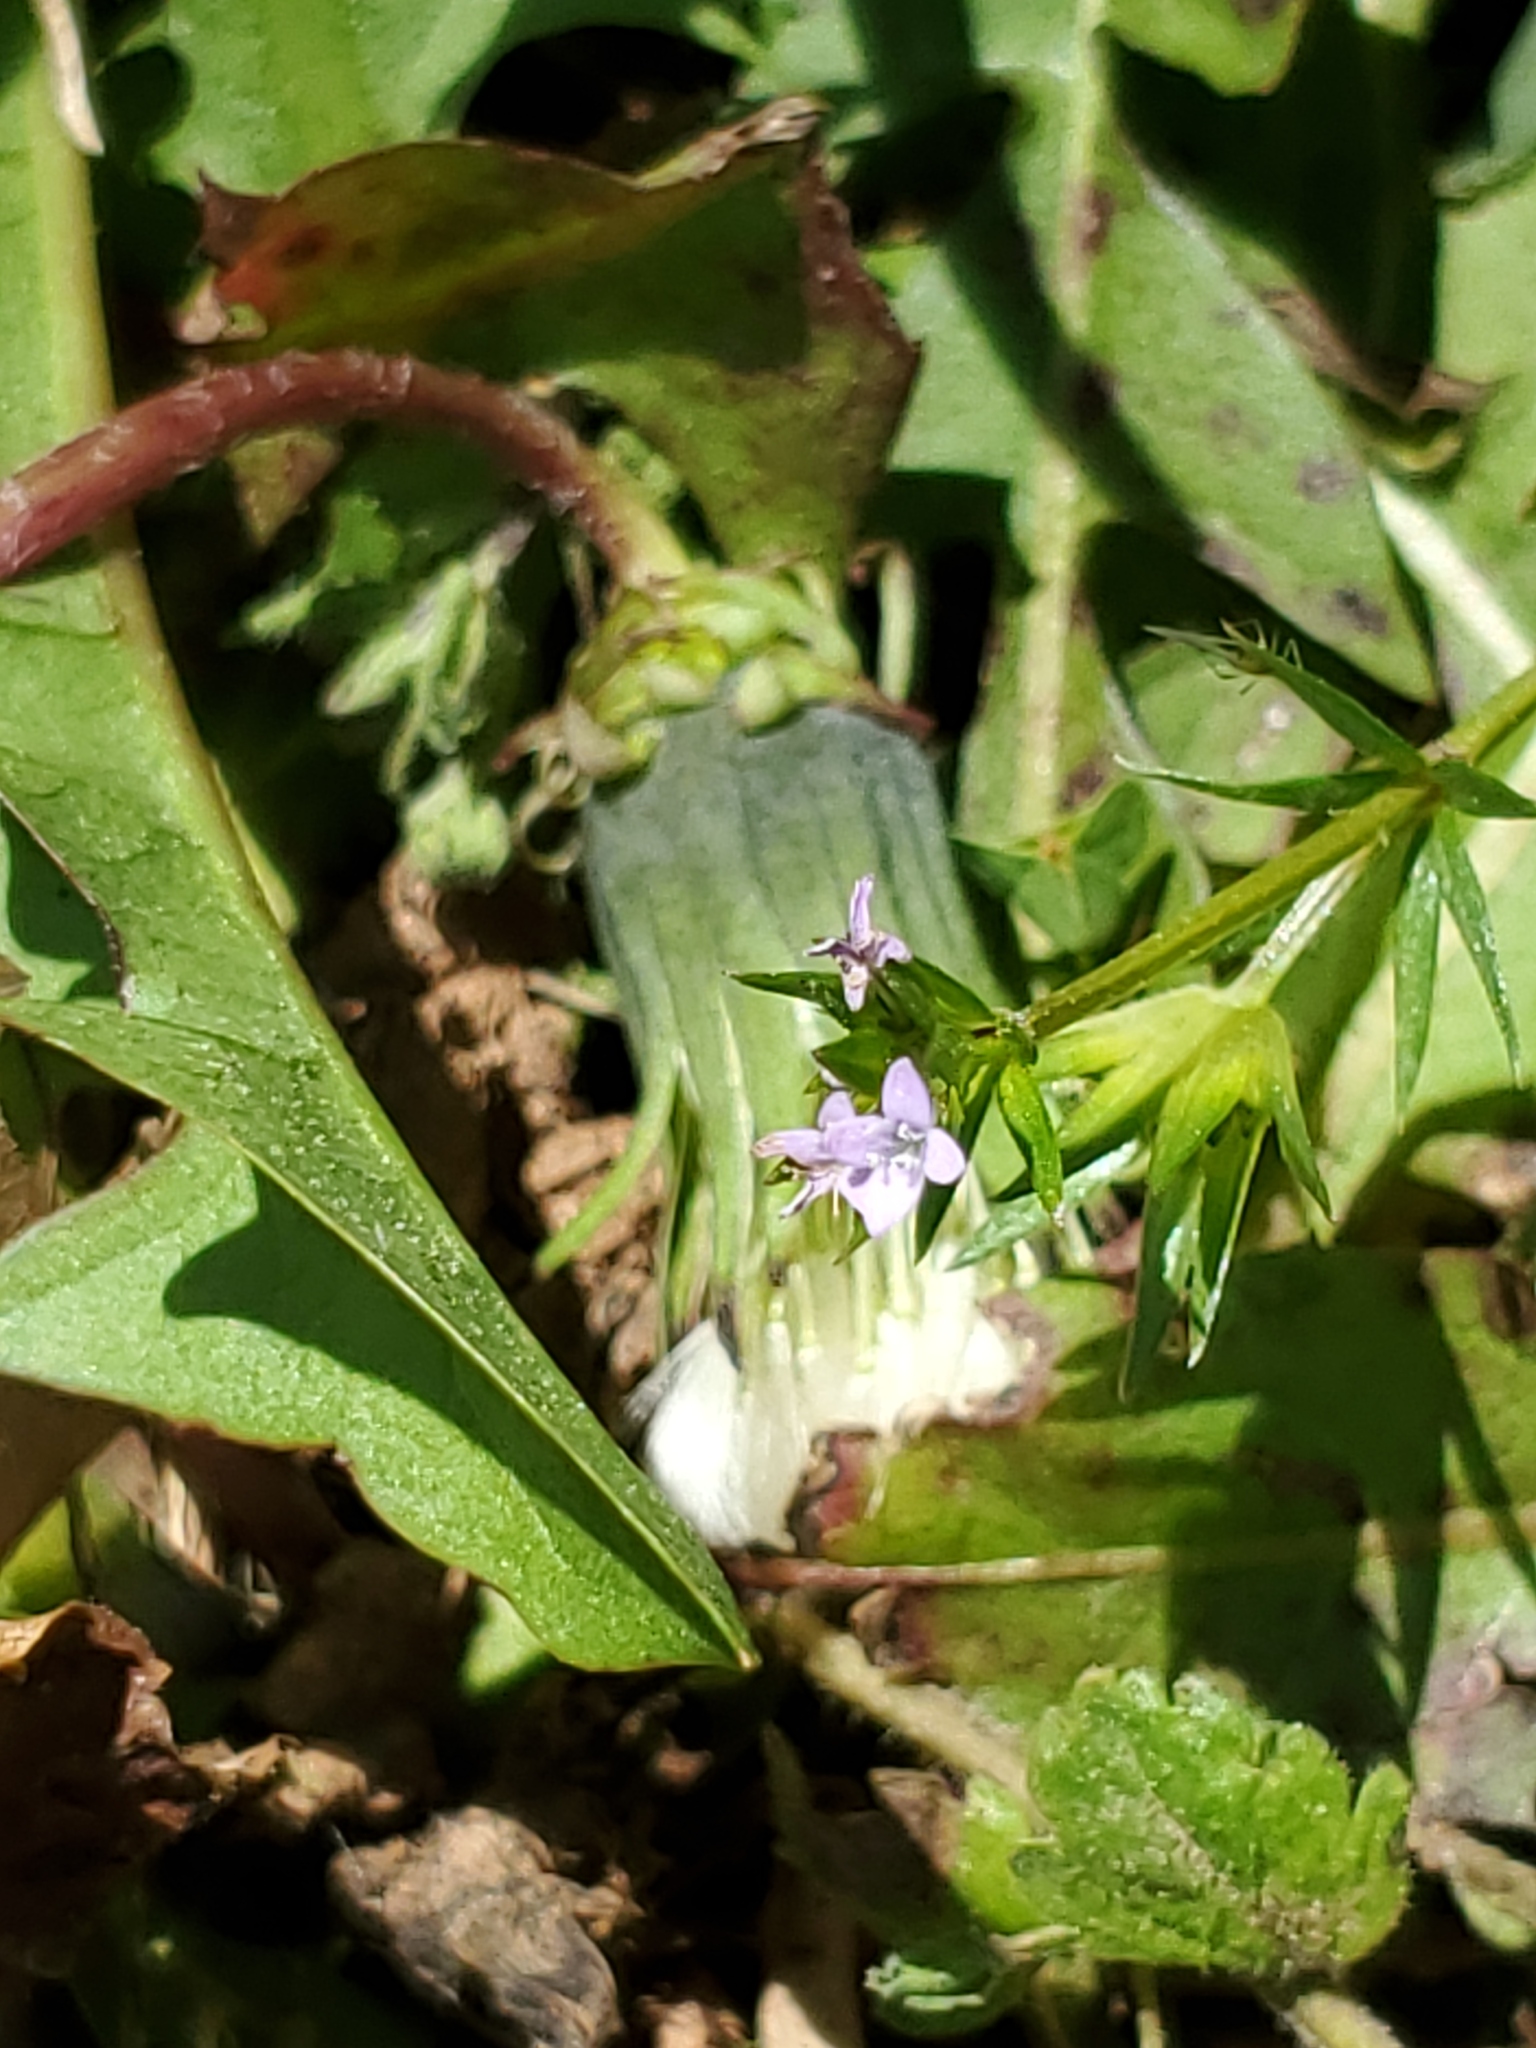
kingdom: Plantae
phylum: Tracheophyta
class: Magnoliopsida
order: Gentianales
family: Rubiaceae
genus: Sherardia
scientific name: Sherardia arvensis
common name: Field madder
